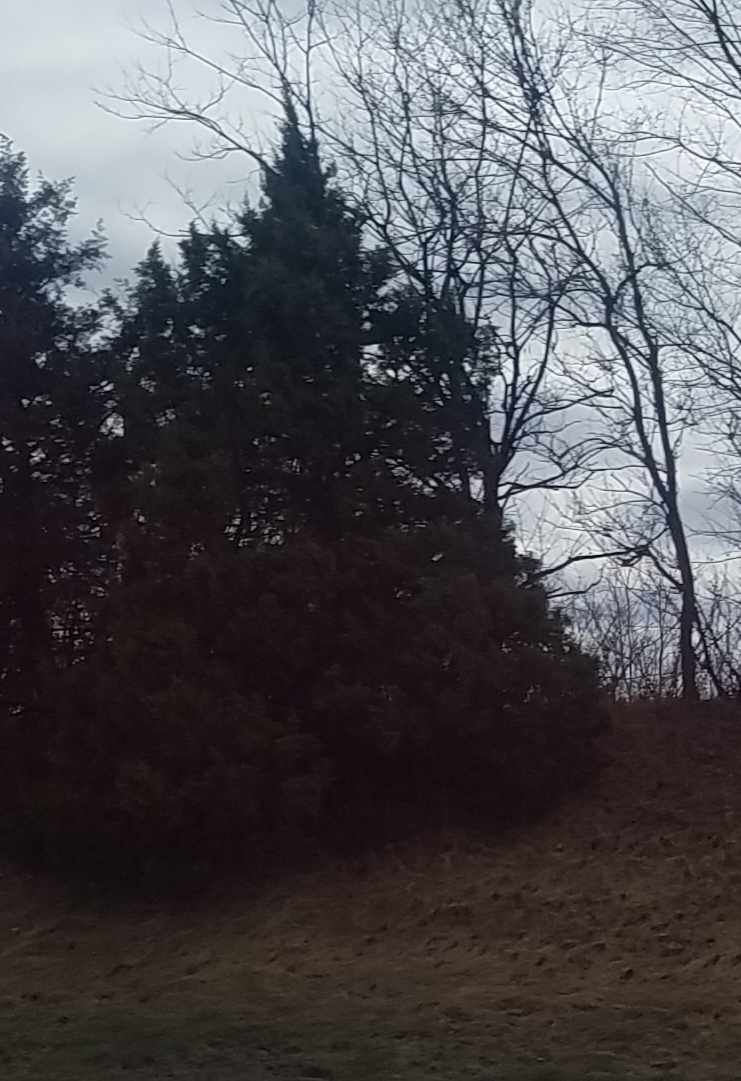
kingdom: Plantae
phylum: Tracheophyta
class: Pinopsida
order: Pinales
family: Cupressaceae
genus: Juniperus
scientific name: Juniperus virginiana
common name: Red juniper
